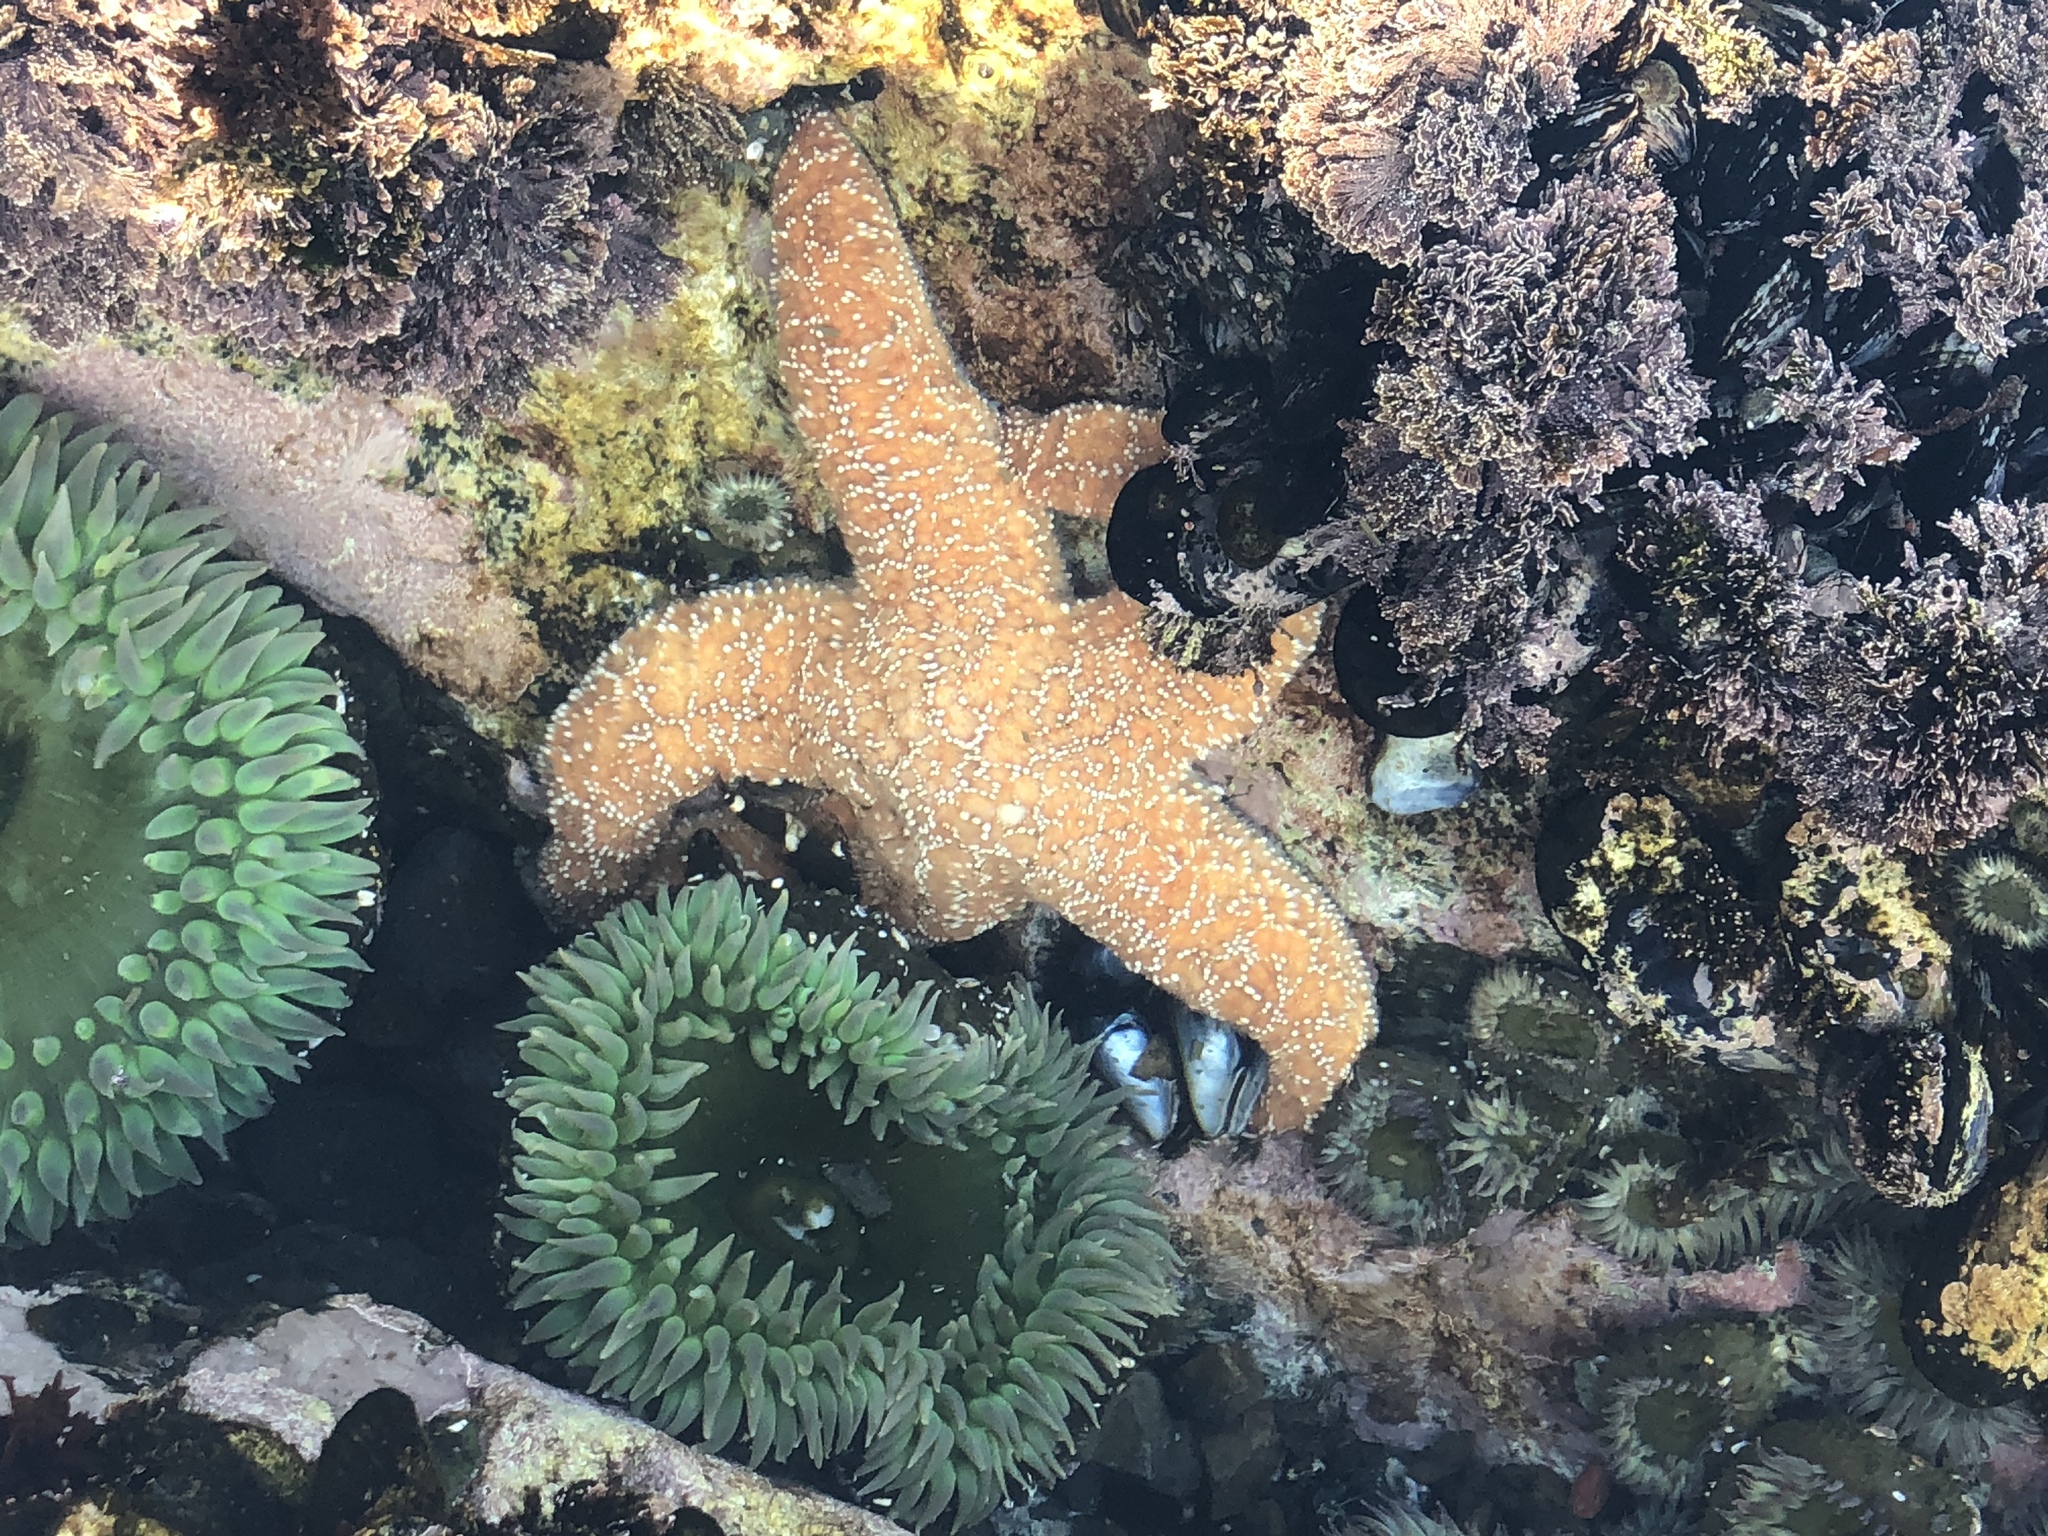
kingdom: Animalia
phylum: Echinodermata
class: Asteroidea
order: Forcipulatida
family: Asteriidae
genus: Pisaster
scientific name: Pisaster ochraceus
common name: Ochre stars
